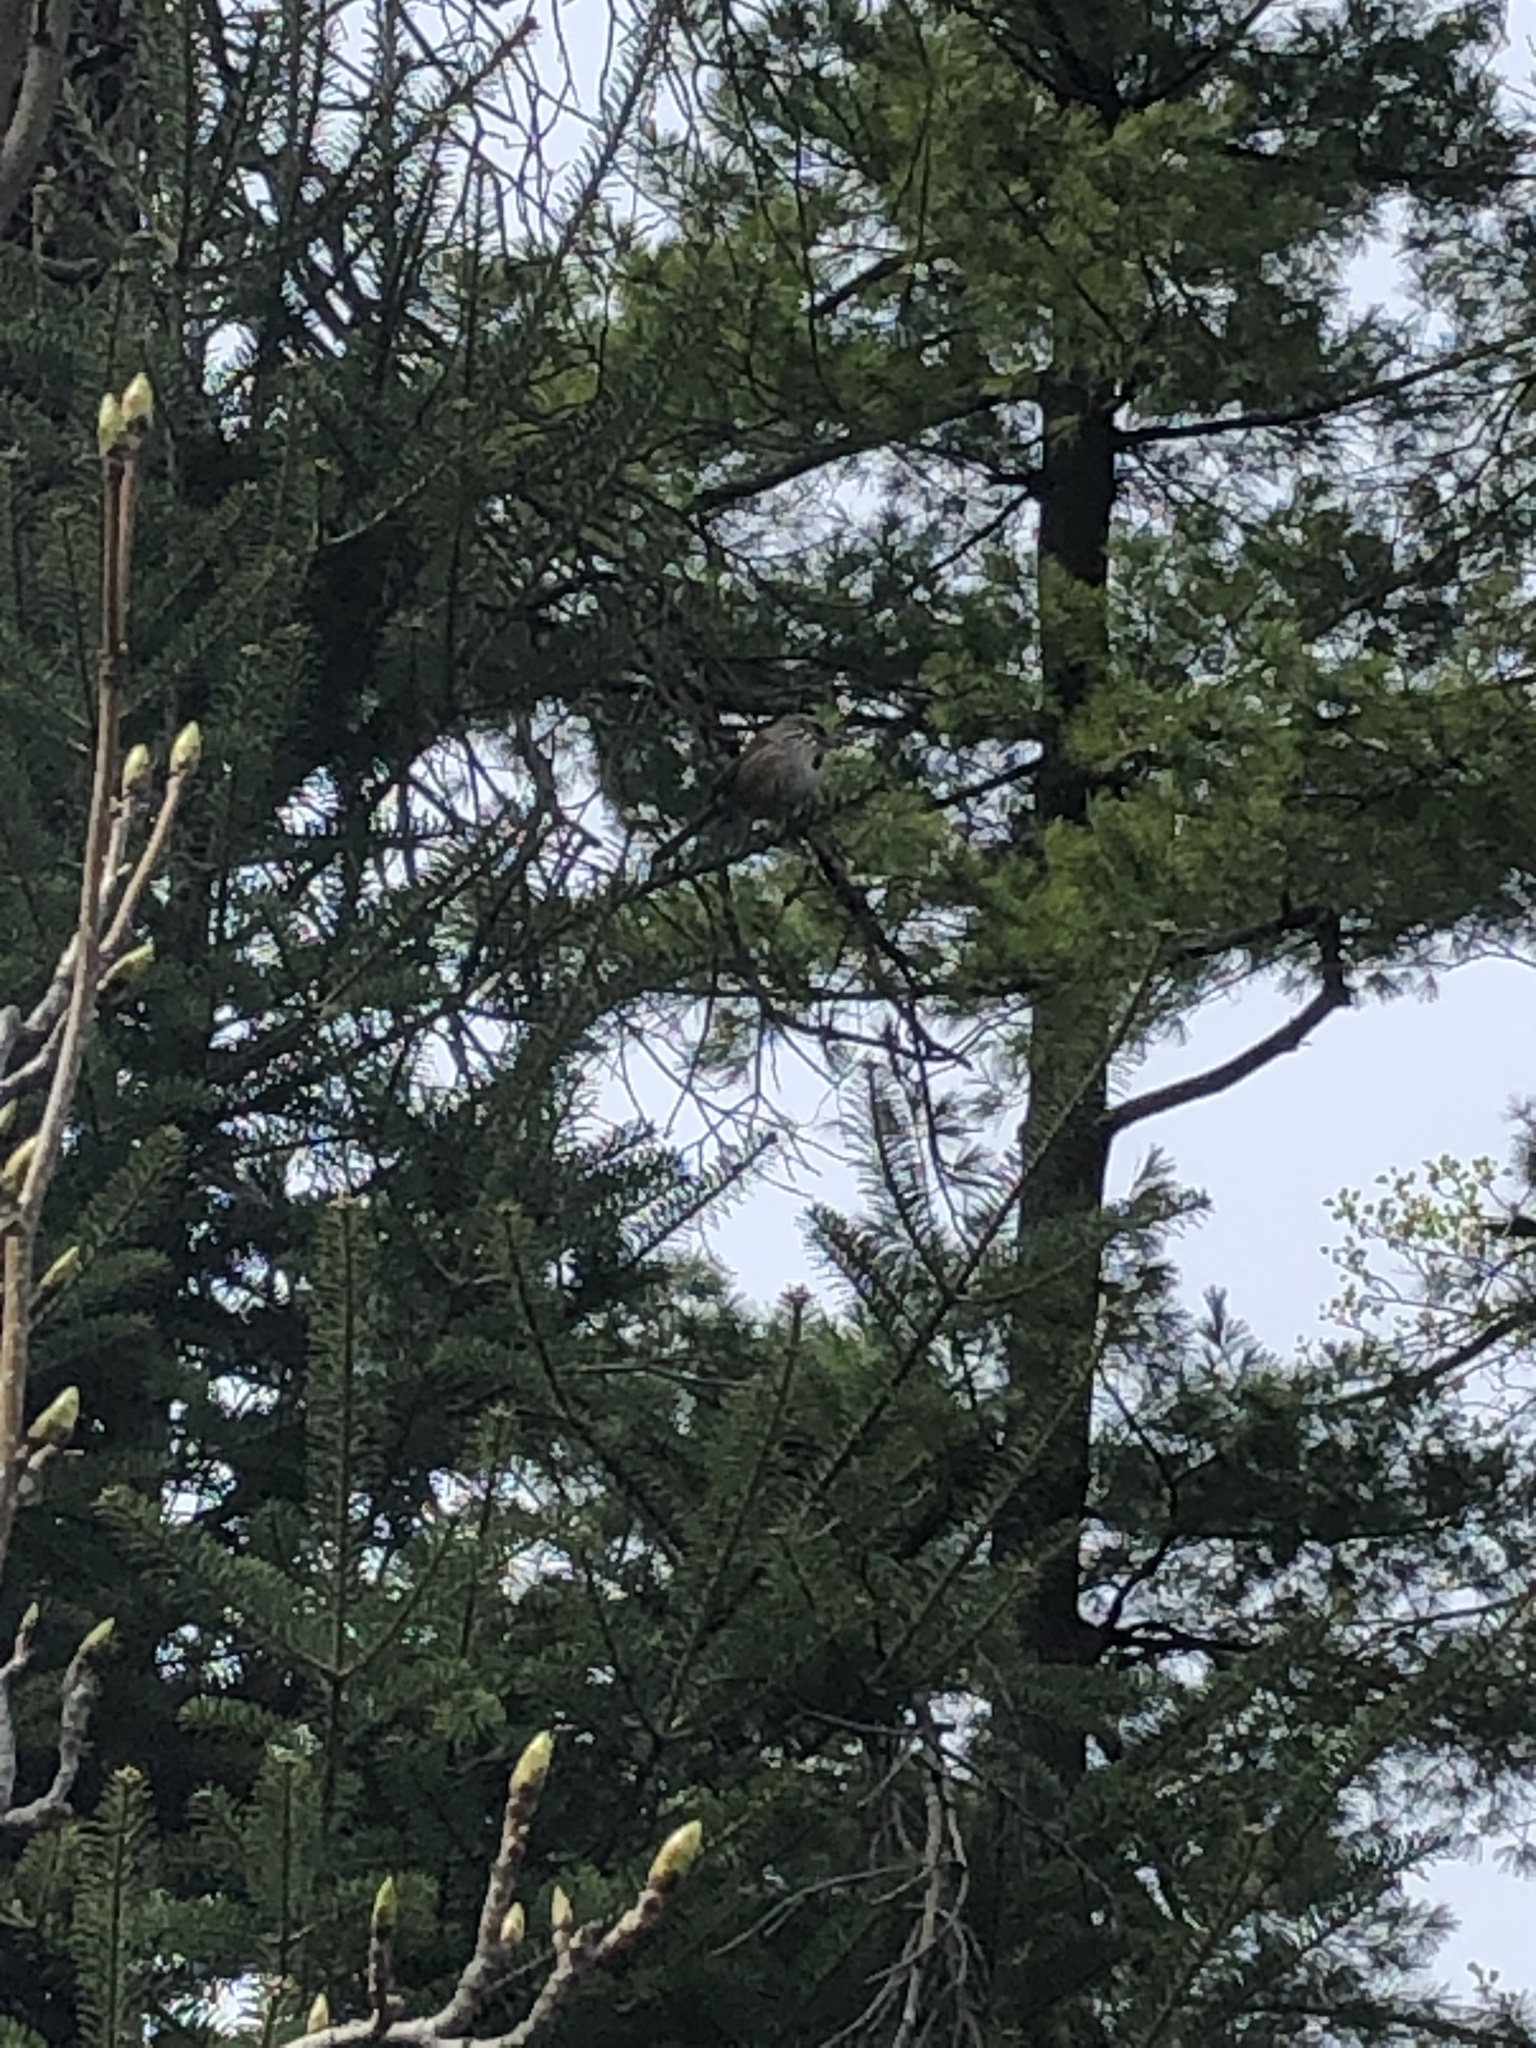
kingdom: Animalia
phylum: Chordata
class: Aves
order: Passeriformes
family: Passerellidae
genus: Melospiza
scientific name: Melospiza melodia
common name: Song sparrow
